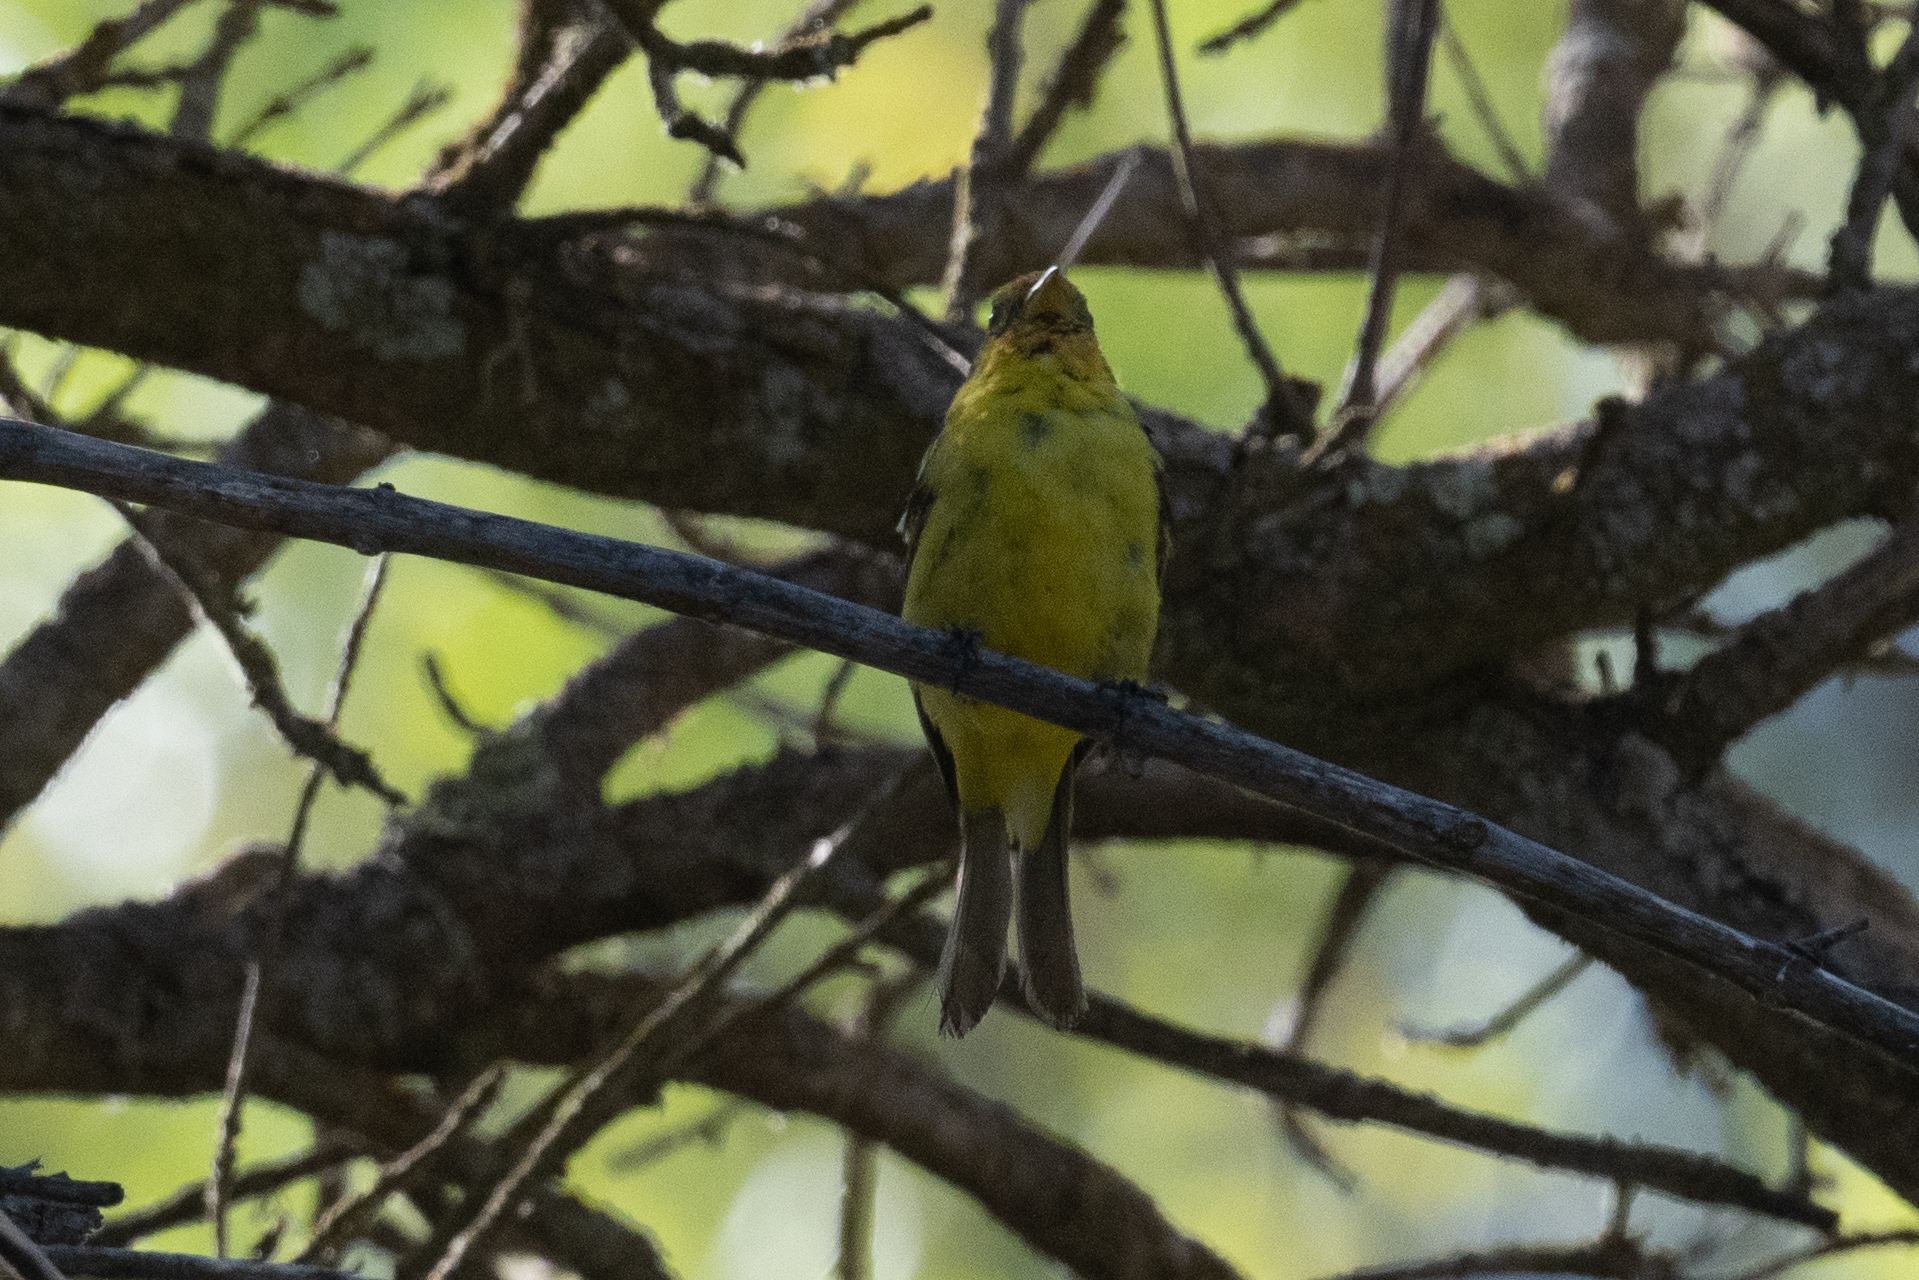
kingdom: Animalia
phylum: Chordata
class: Aves
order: Passeriformes
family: Cardinalidae
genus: Piranga
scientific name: Piranga ludoviciana
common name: Western tanager
